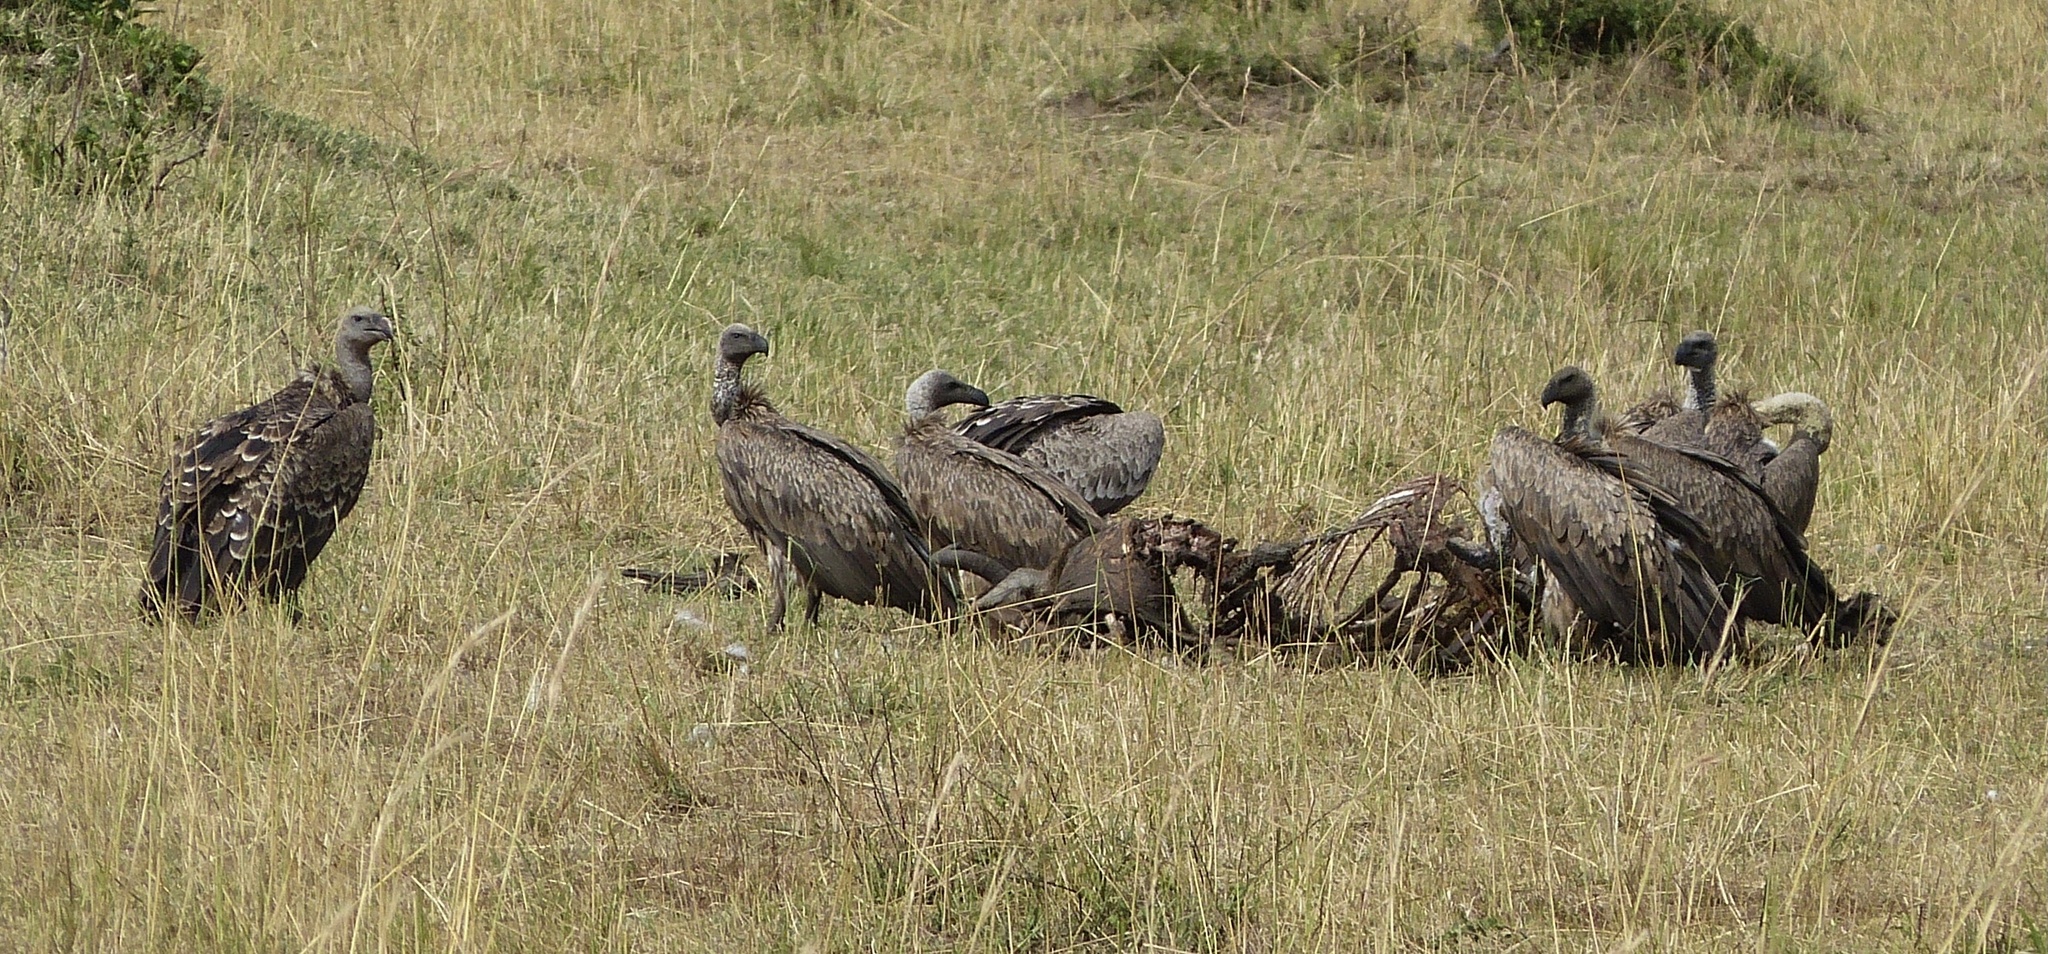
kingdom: Animalia
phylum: Chordata
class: Aves
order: Accipitriformes
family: Accipitridae
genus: Gyps
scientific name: Gyps rueppellii
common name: Rüppell's vulture
